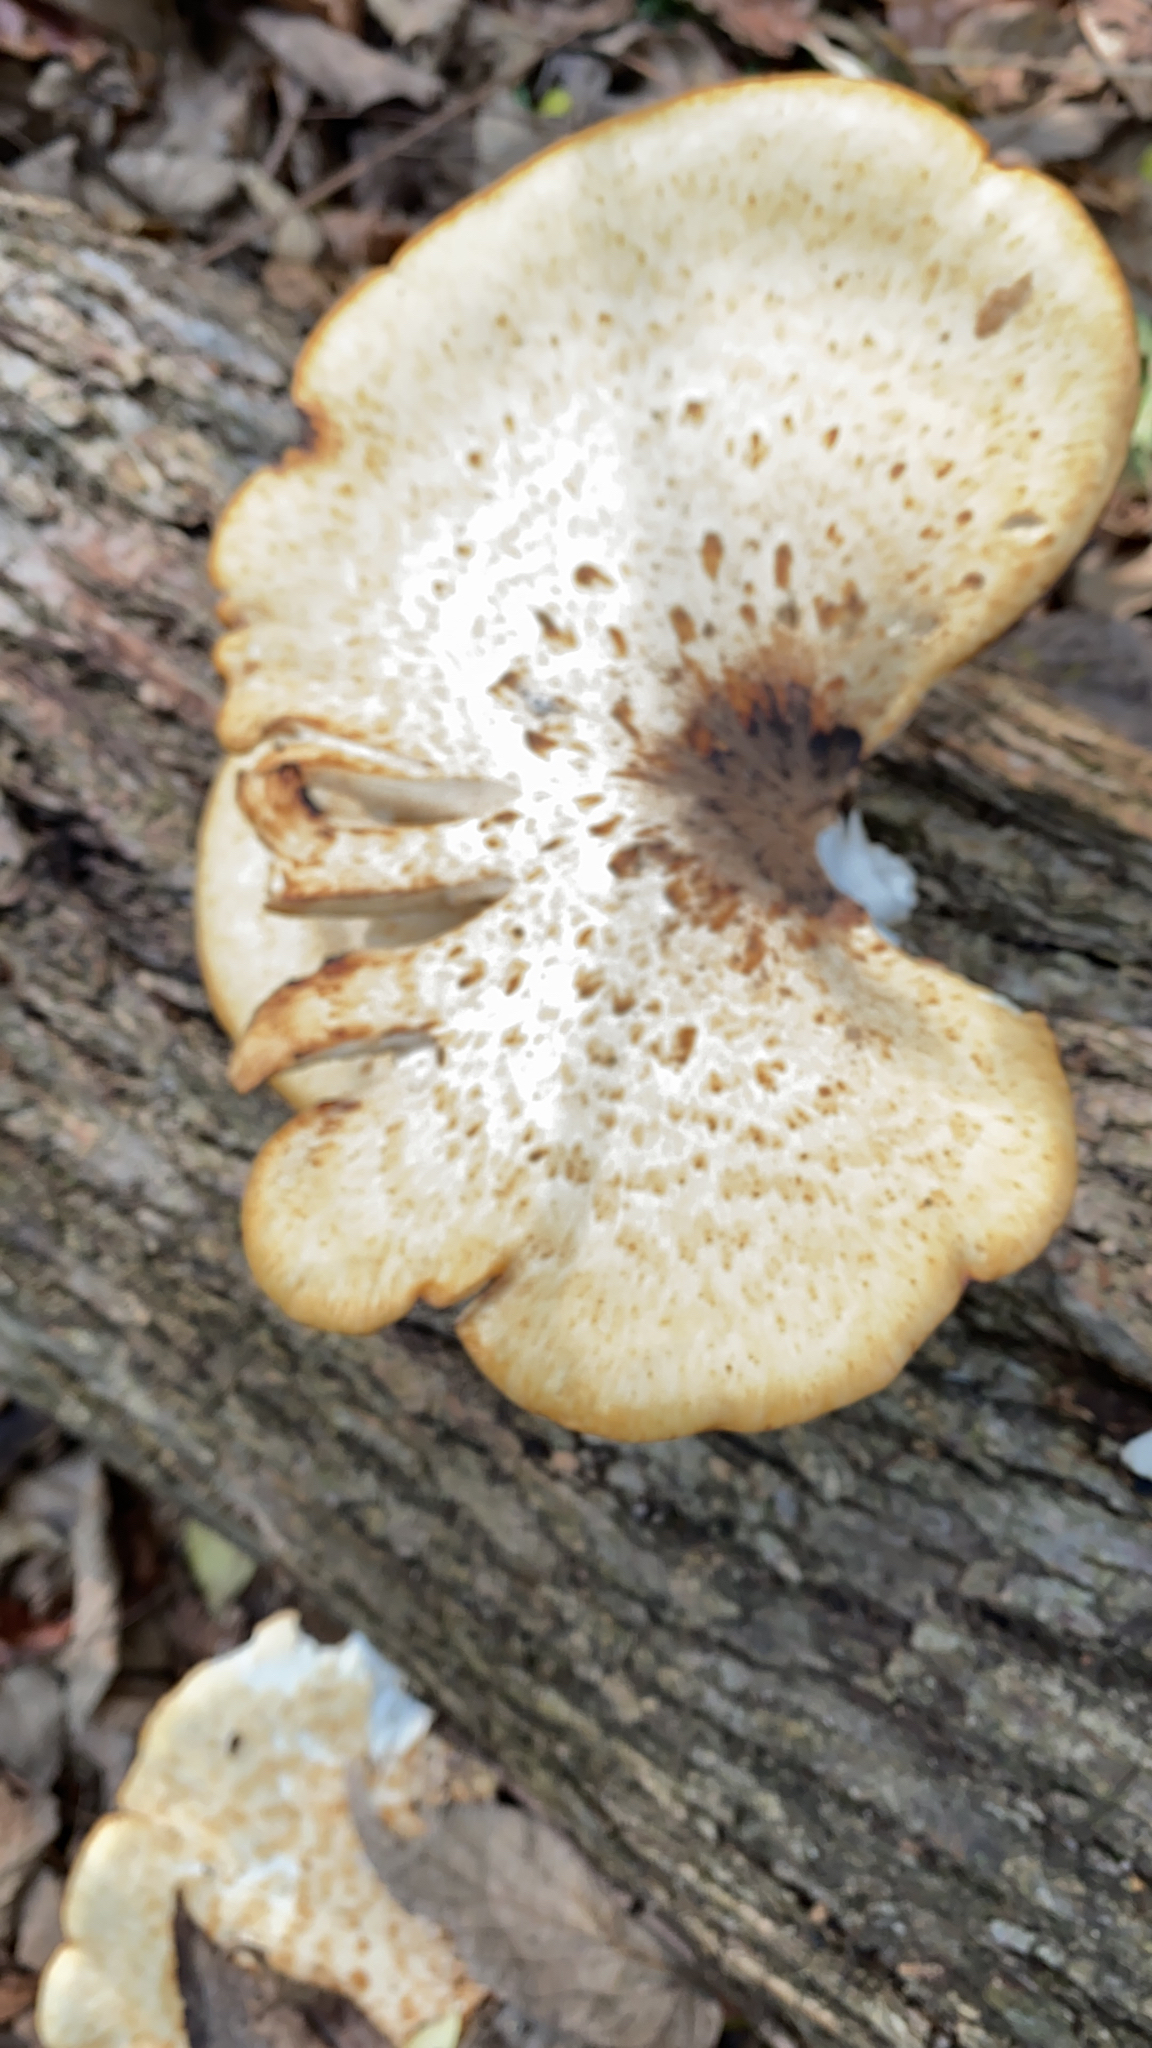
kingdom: Fungi
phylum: Basidiomycota
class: Agaricomycetes
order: Polyporales
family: Polyporaceae
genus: Cerioporus
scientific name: Cerioporus squamosus
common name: Dryad's saddle
